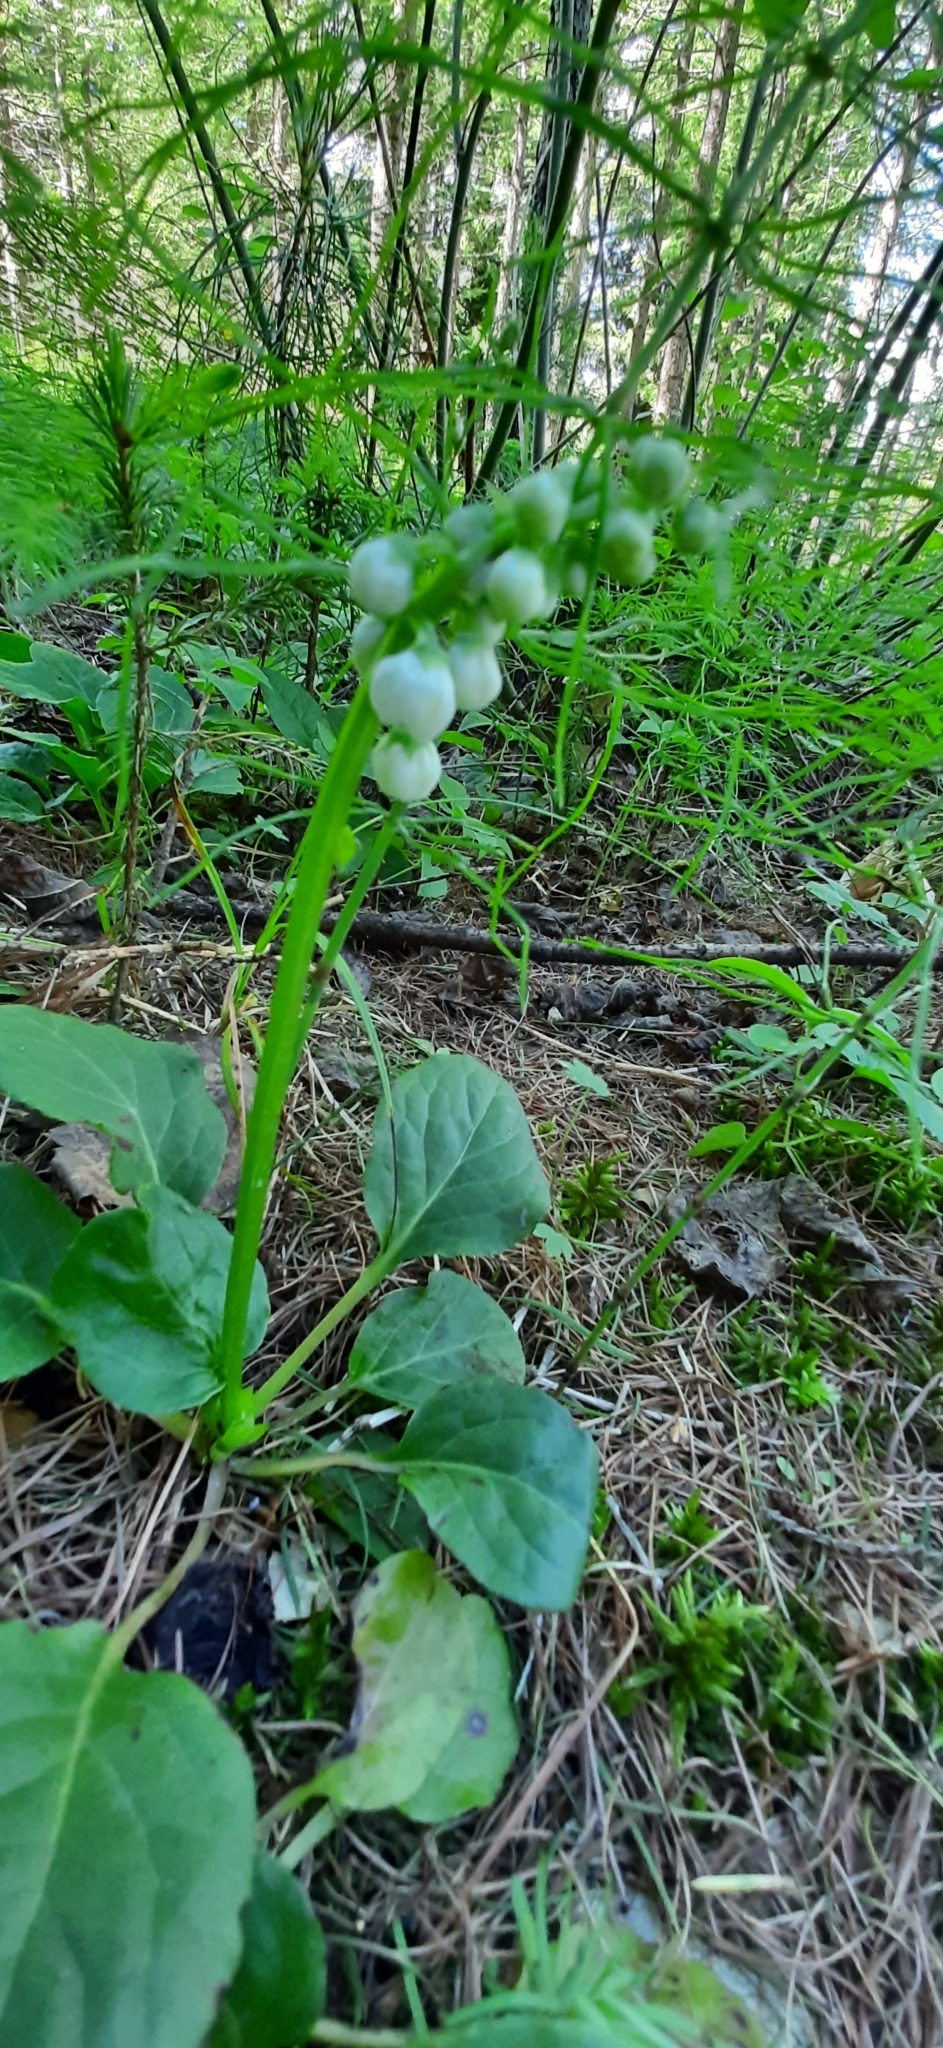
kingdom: Plantae
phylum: Tracheophyta
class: Magnoliopsida
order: Ericales
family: Ericaceae
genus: Pyrola
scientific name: Pyrola minor
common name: Common wintergreen
